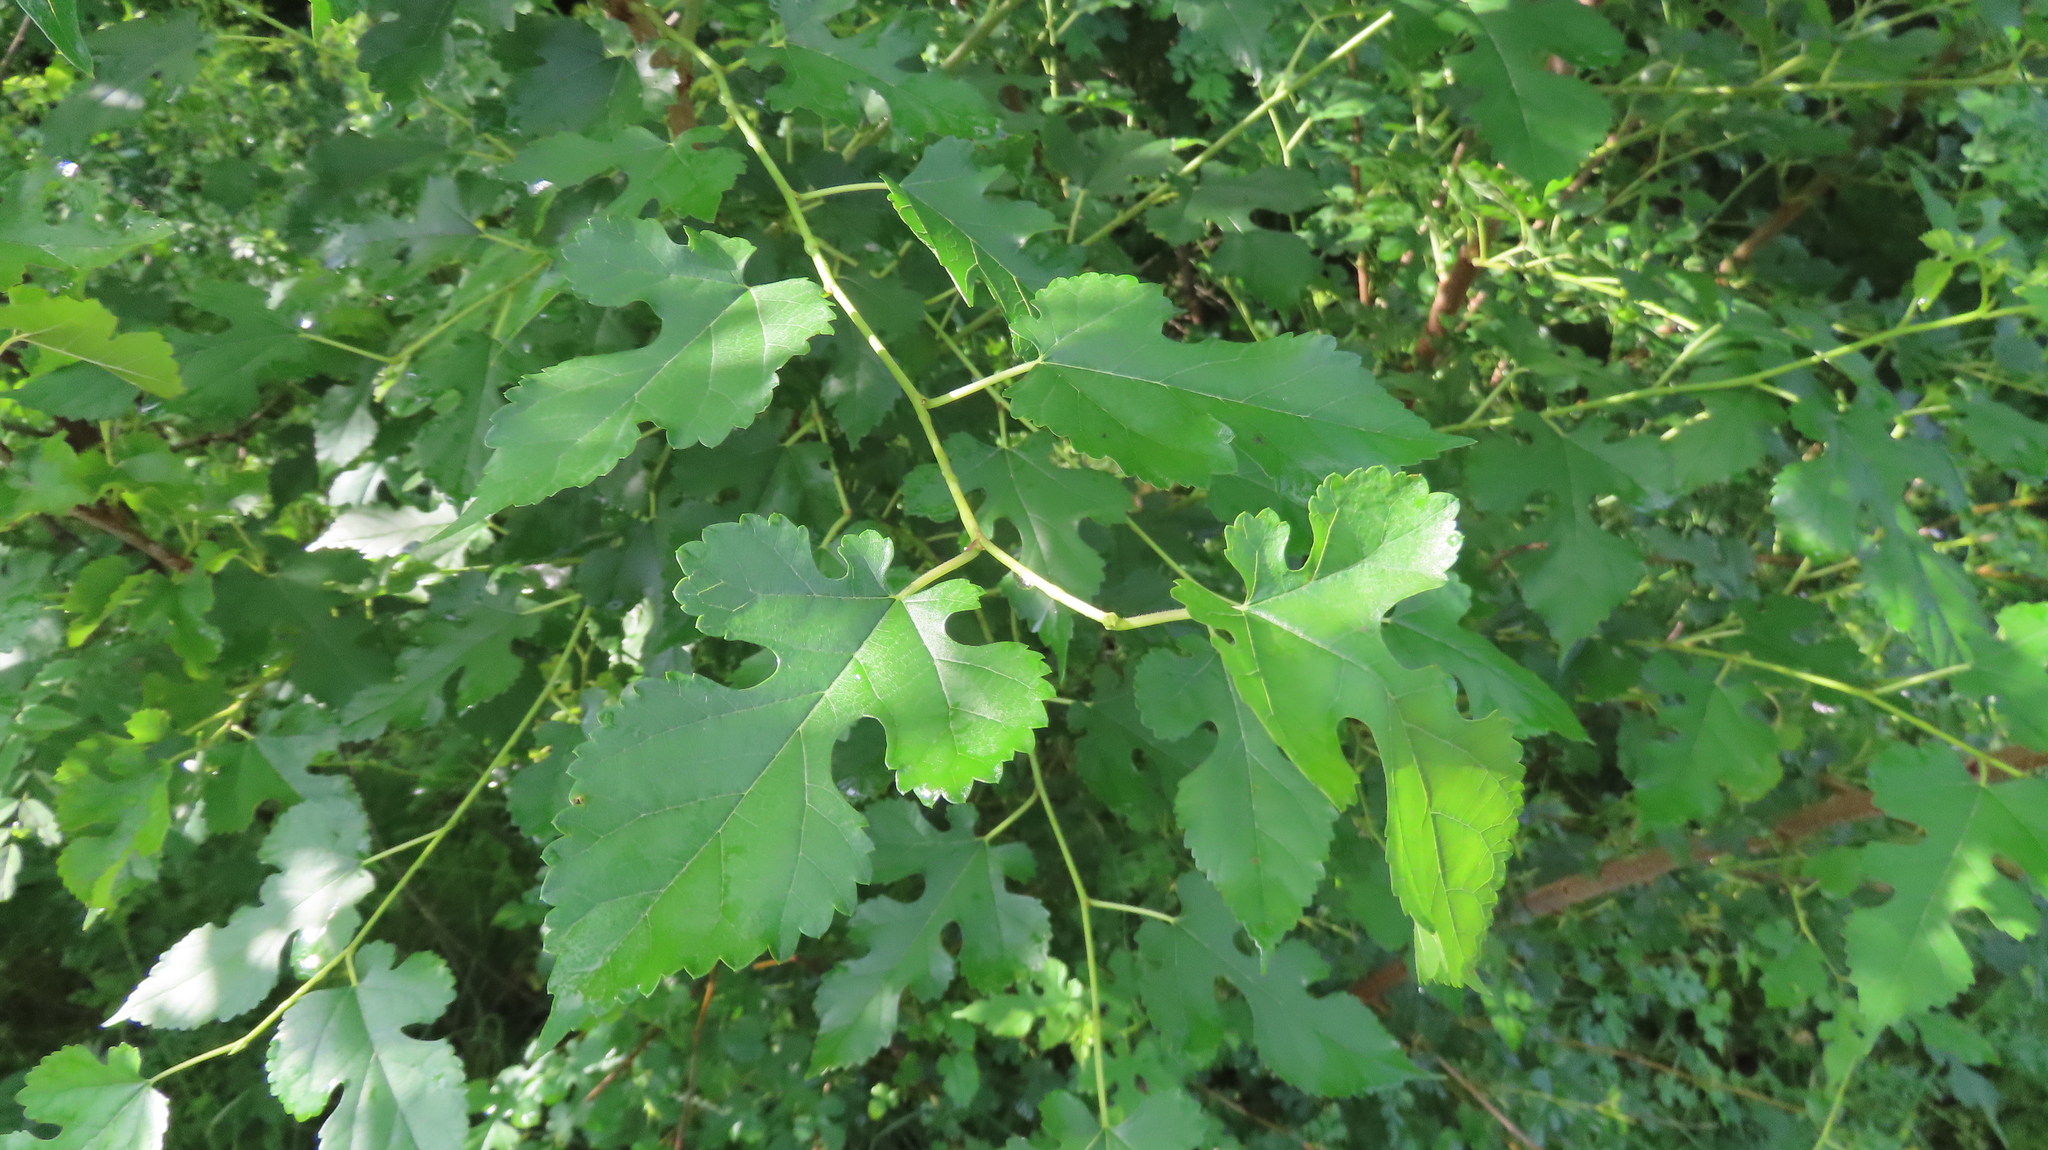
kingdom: Plantae
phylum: Tracheophyta
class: Magnoliopsida
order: Rosales
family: Moraceae
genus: Morus
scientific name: Morus alba
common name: White mulberry
